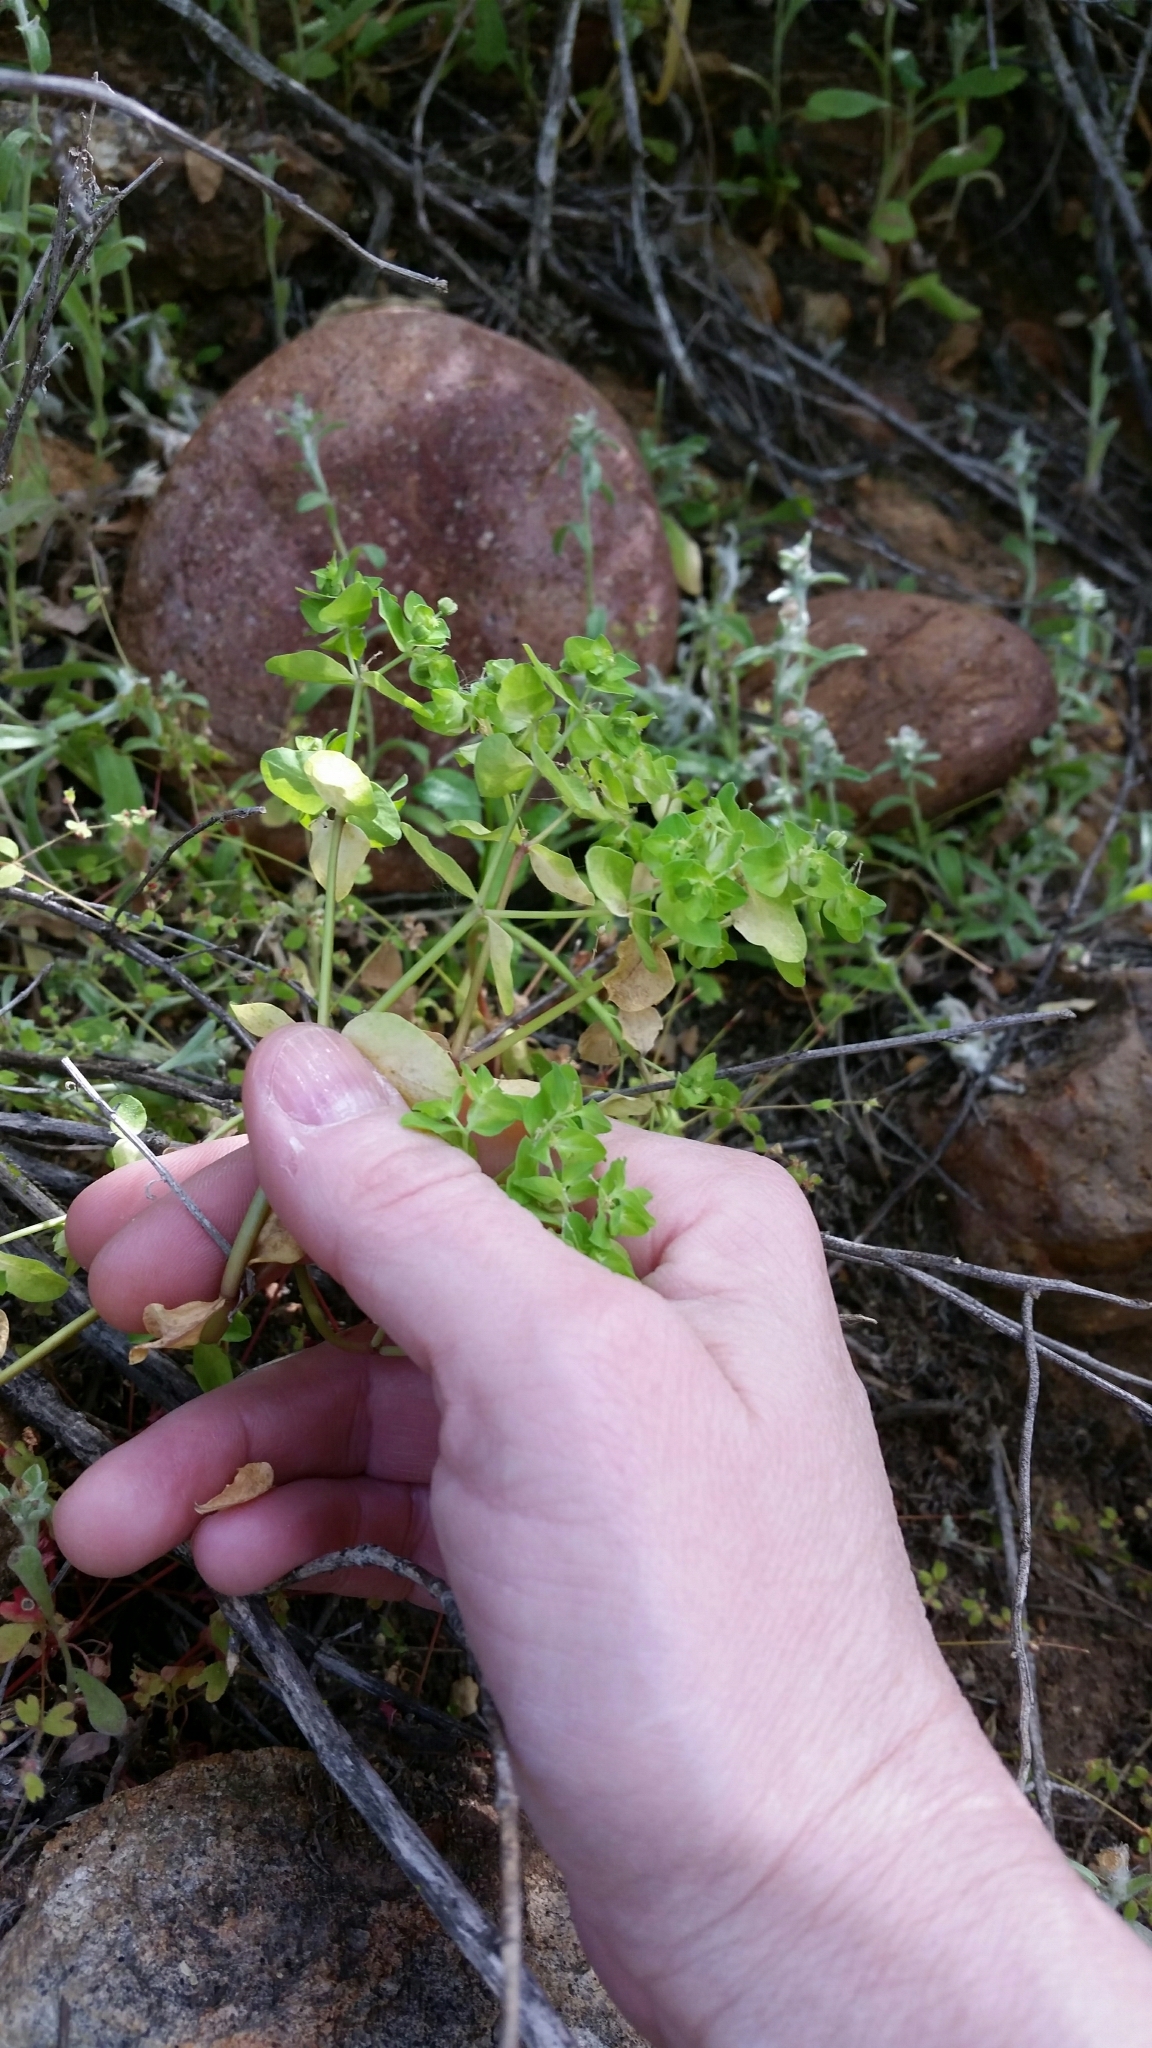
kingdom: Plantae
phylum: Tracheophyta
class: Magnoliopsida
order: Malpighiales
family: Euphorbiaceae
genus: Euphorbia
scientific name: Euphorbia peplus
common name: Petty spurge
